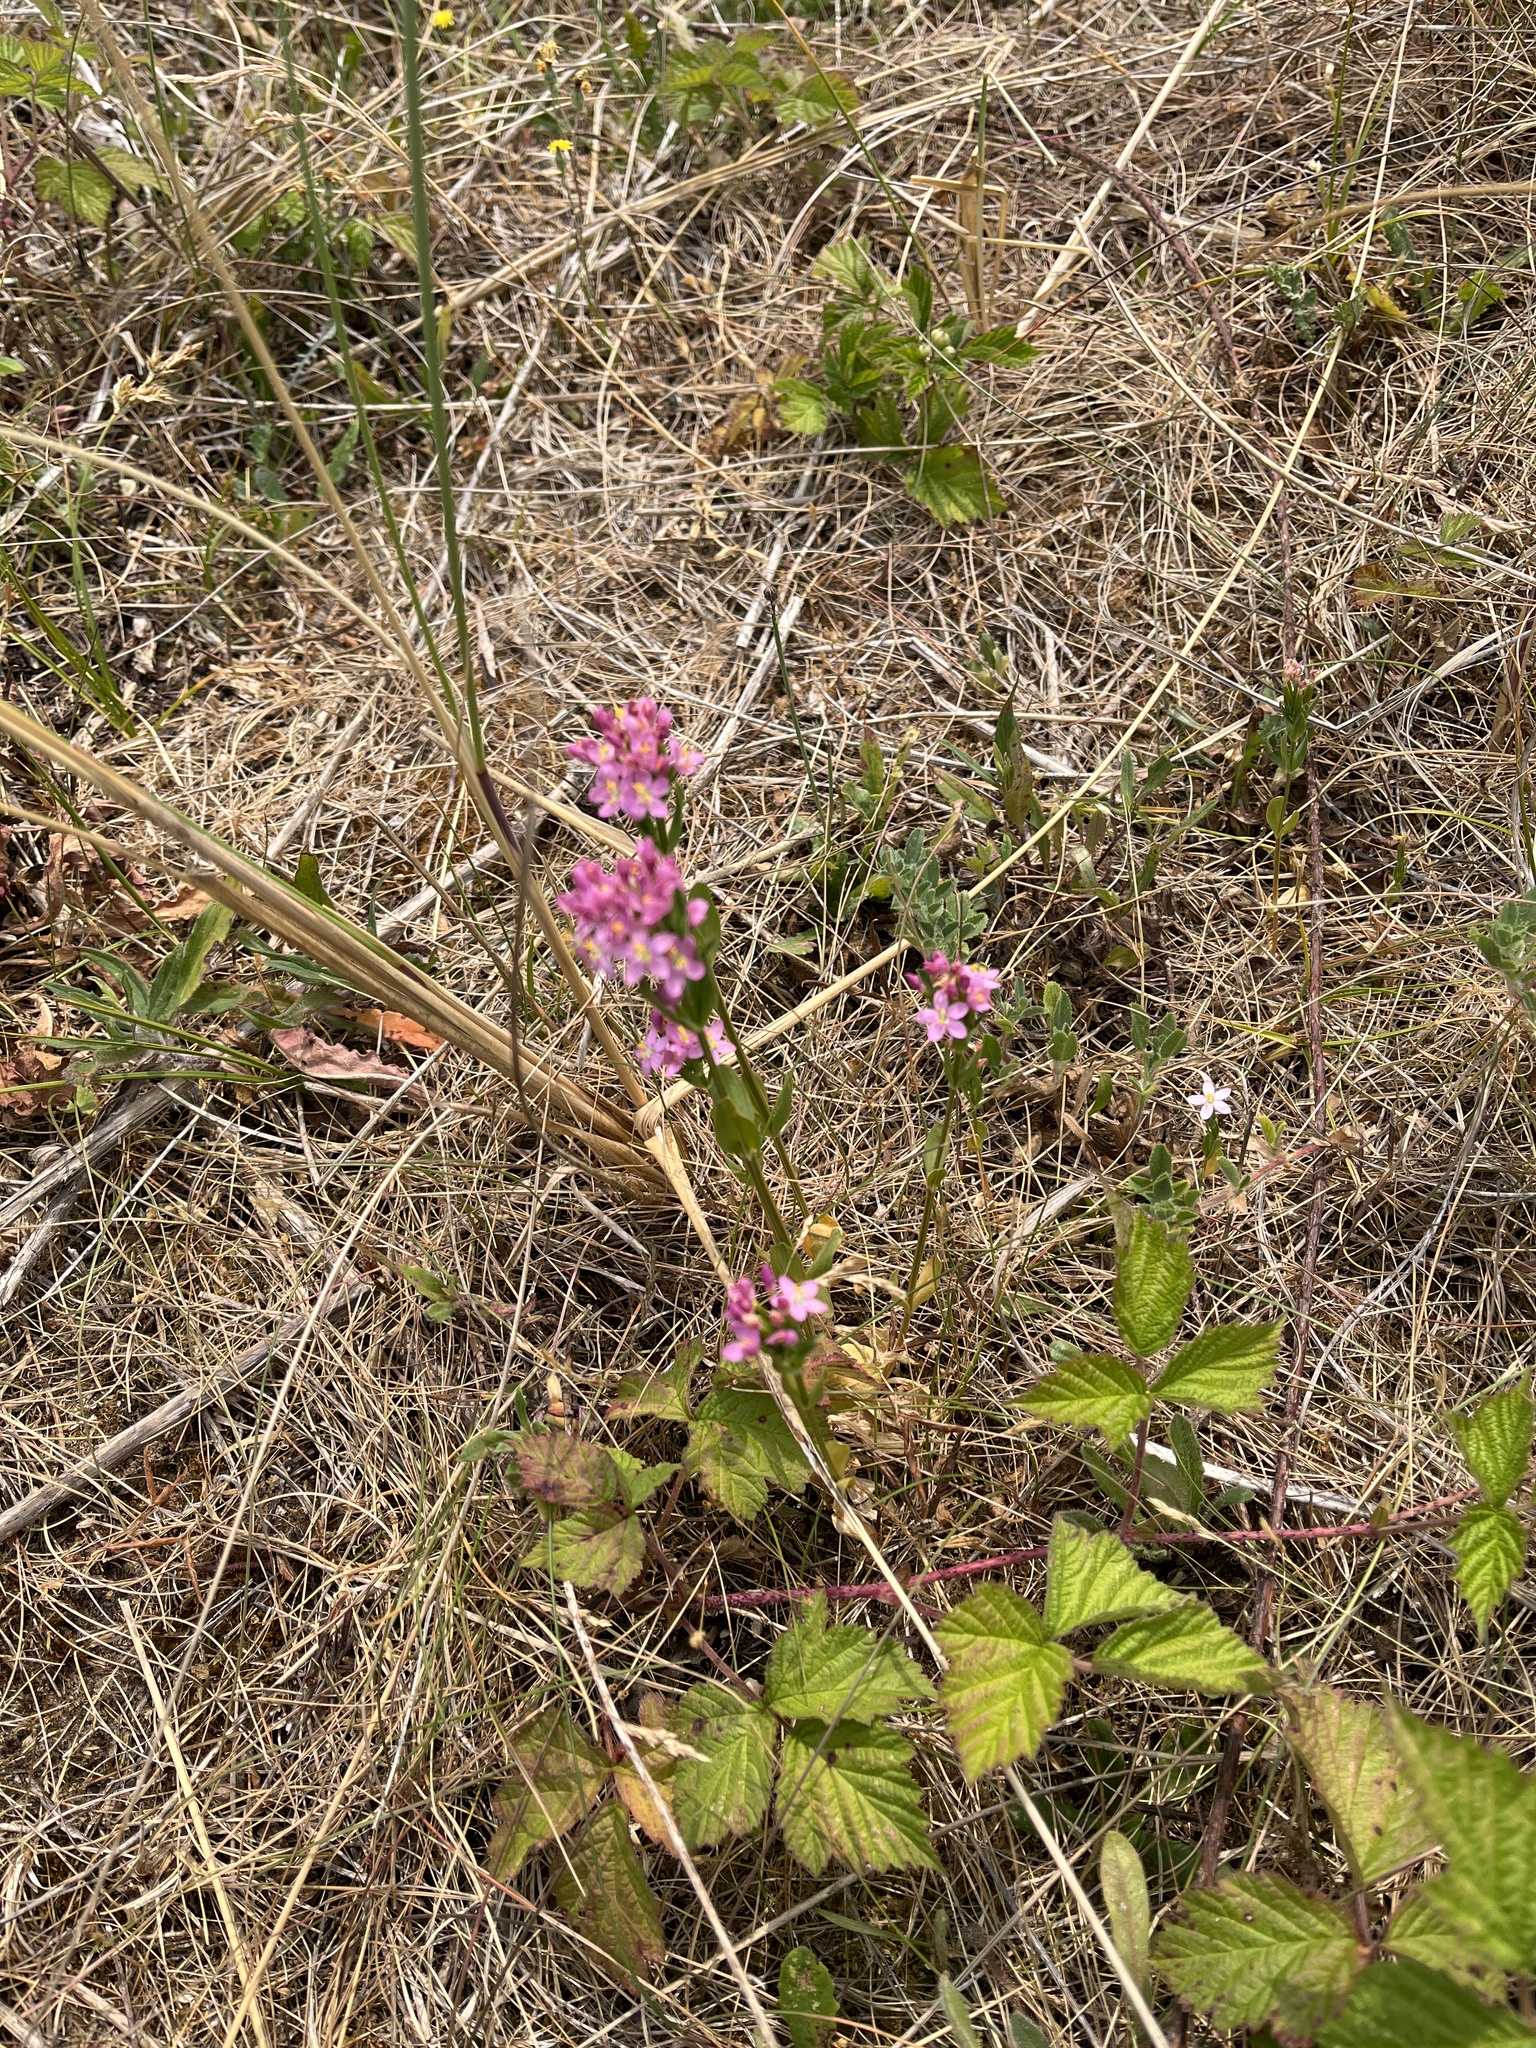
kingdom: Plantae
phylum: Tracheophyta
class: Magnoliopsida
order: Gentianales
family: Gentianaceae
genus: Centaurium
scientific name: Centaurium erythraea
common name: Common centaury
